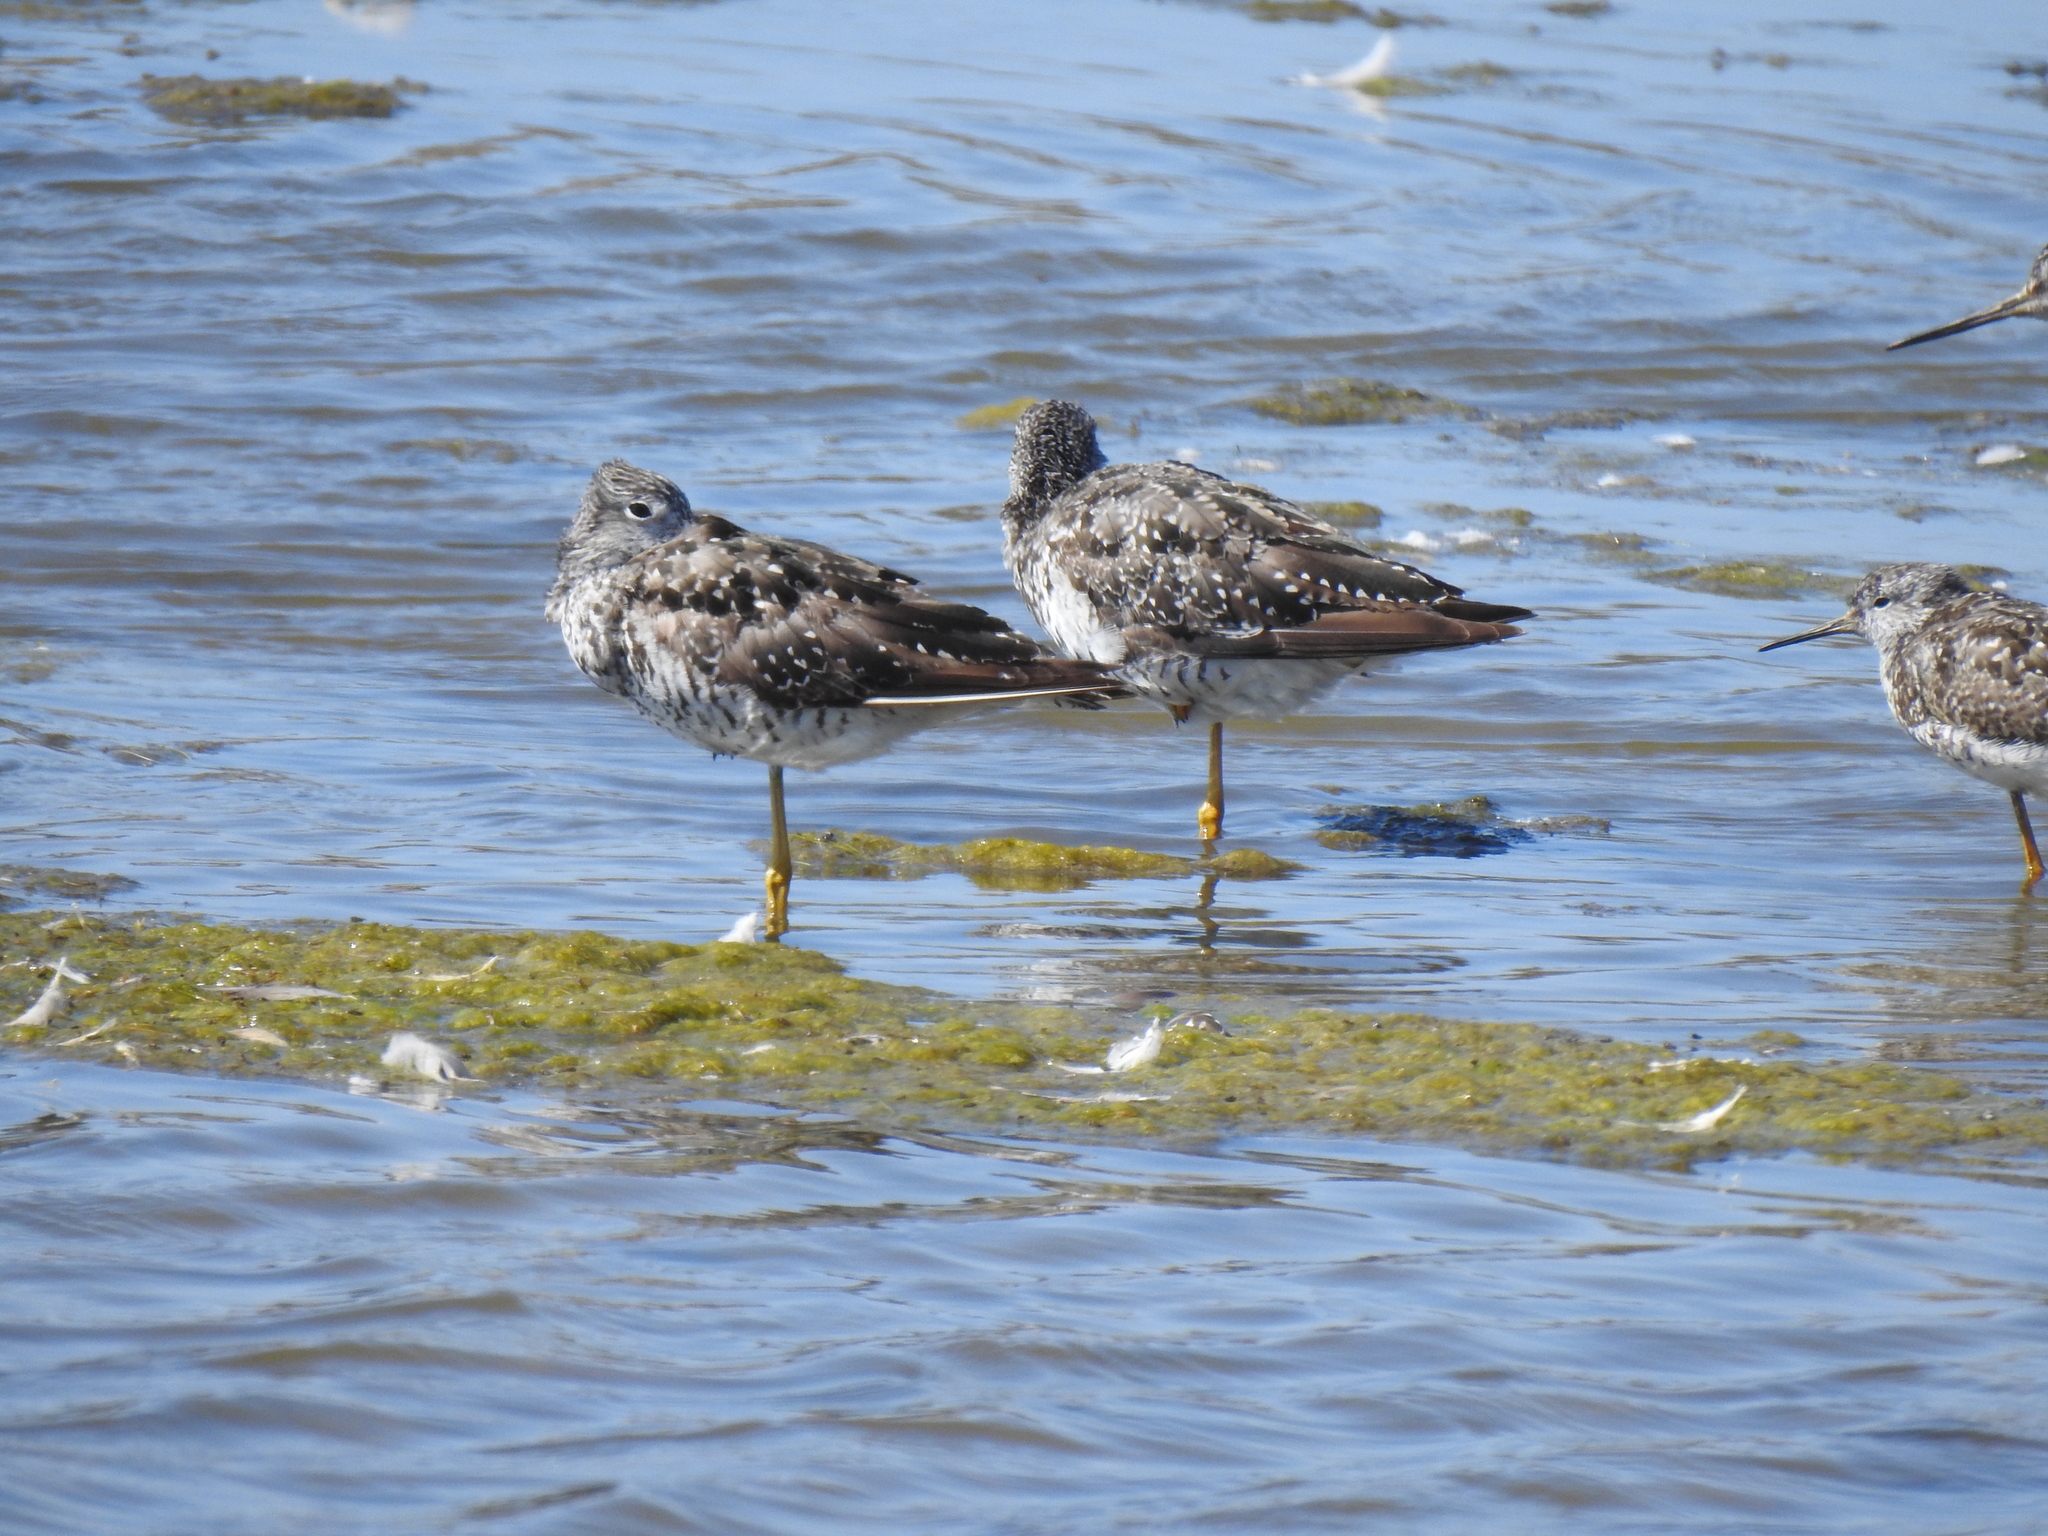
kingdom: Animalia
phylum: Chordata
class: Aves
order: Charadriiformes
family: Scolopacidae
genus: Tringa
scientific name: Tringa melanoleuca
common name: Greater yellowlegs
